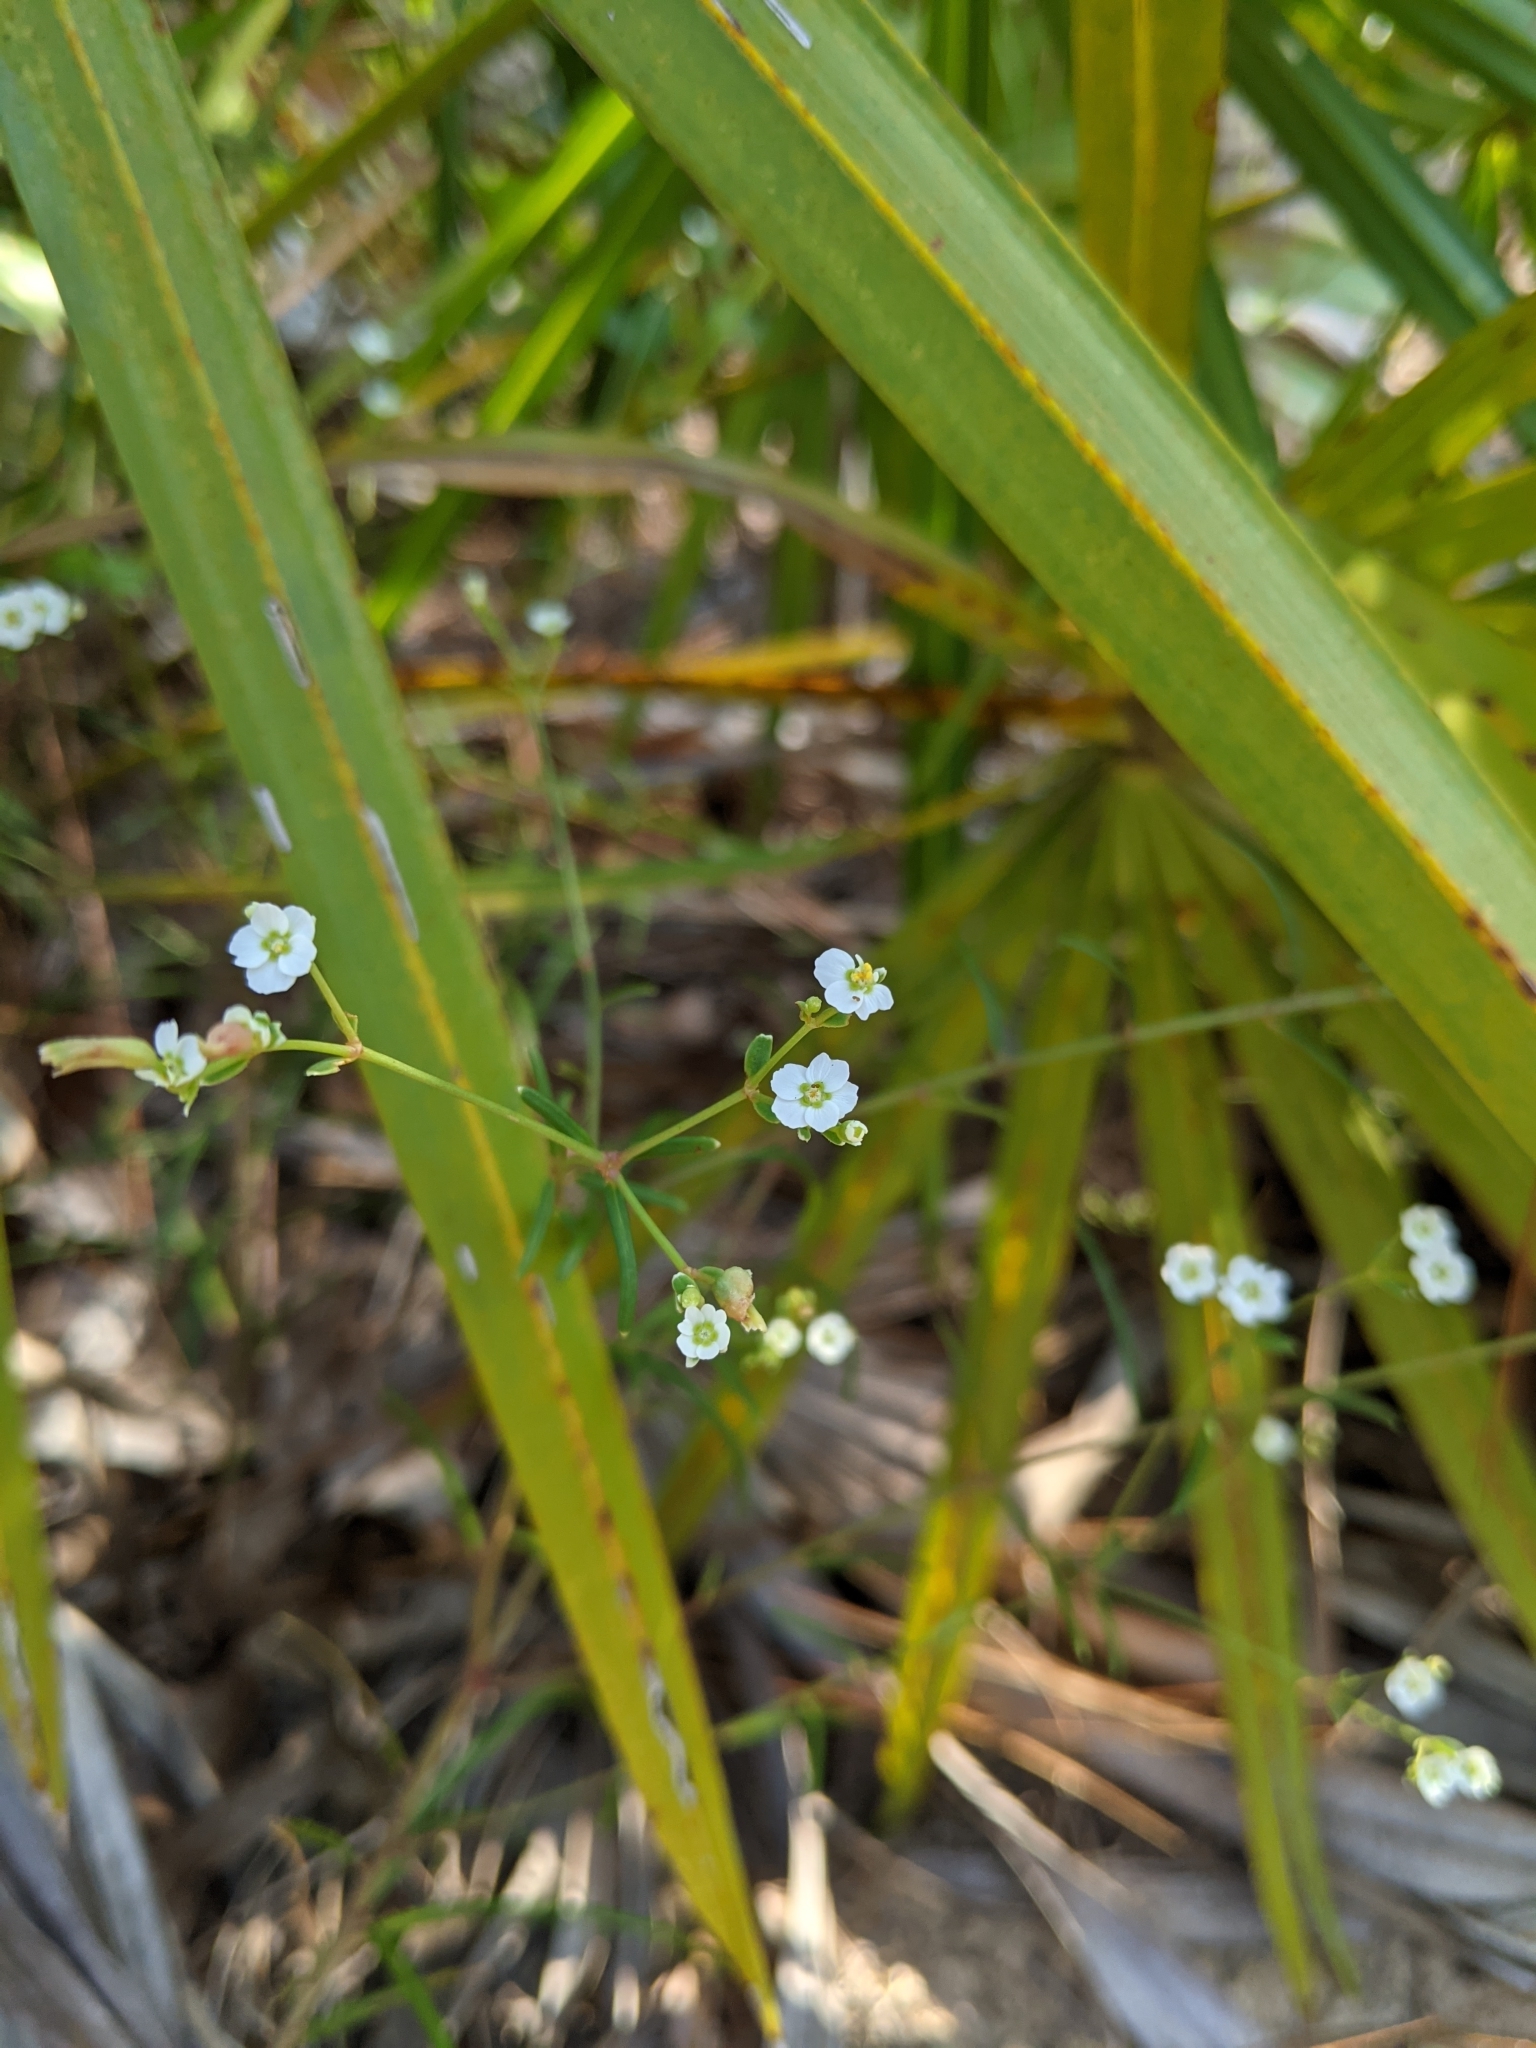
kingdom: Plantae
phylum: Tracheophyta
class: Magnoliopsida
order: Malpighiales
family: Euphorbiaceae
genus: Euphorbia
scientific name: Euphorbia discoidalis
